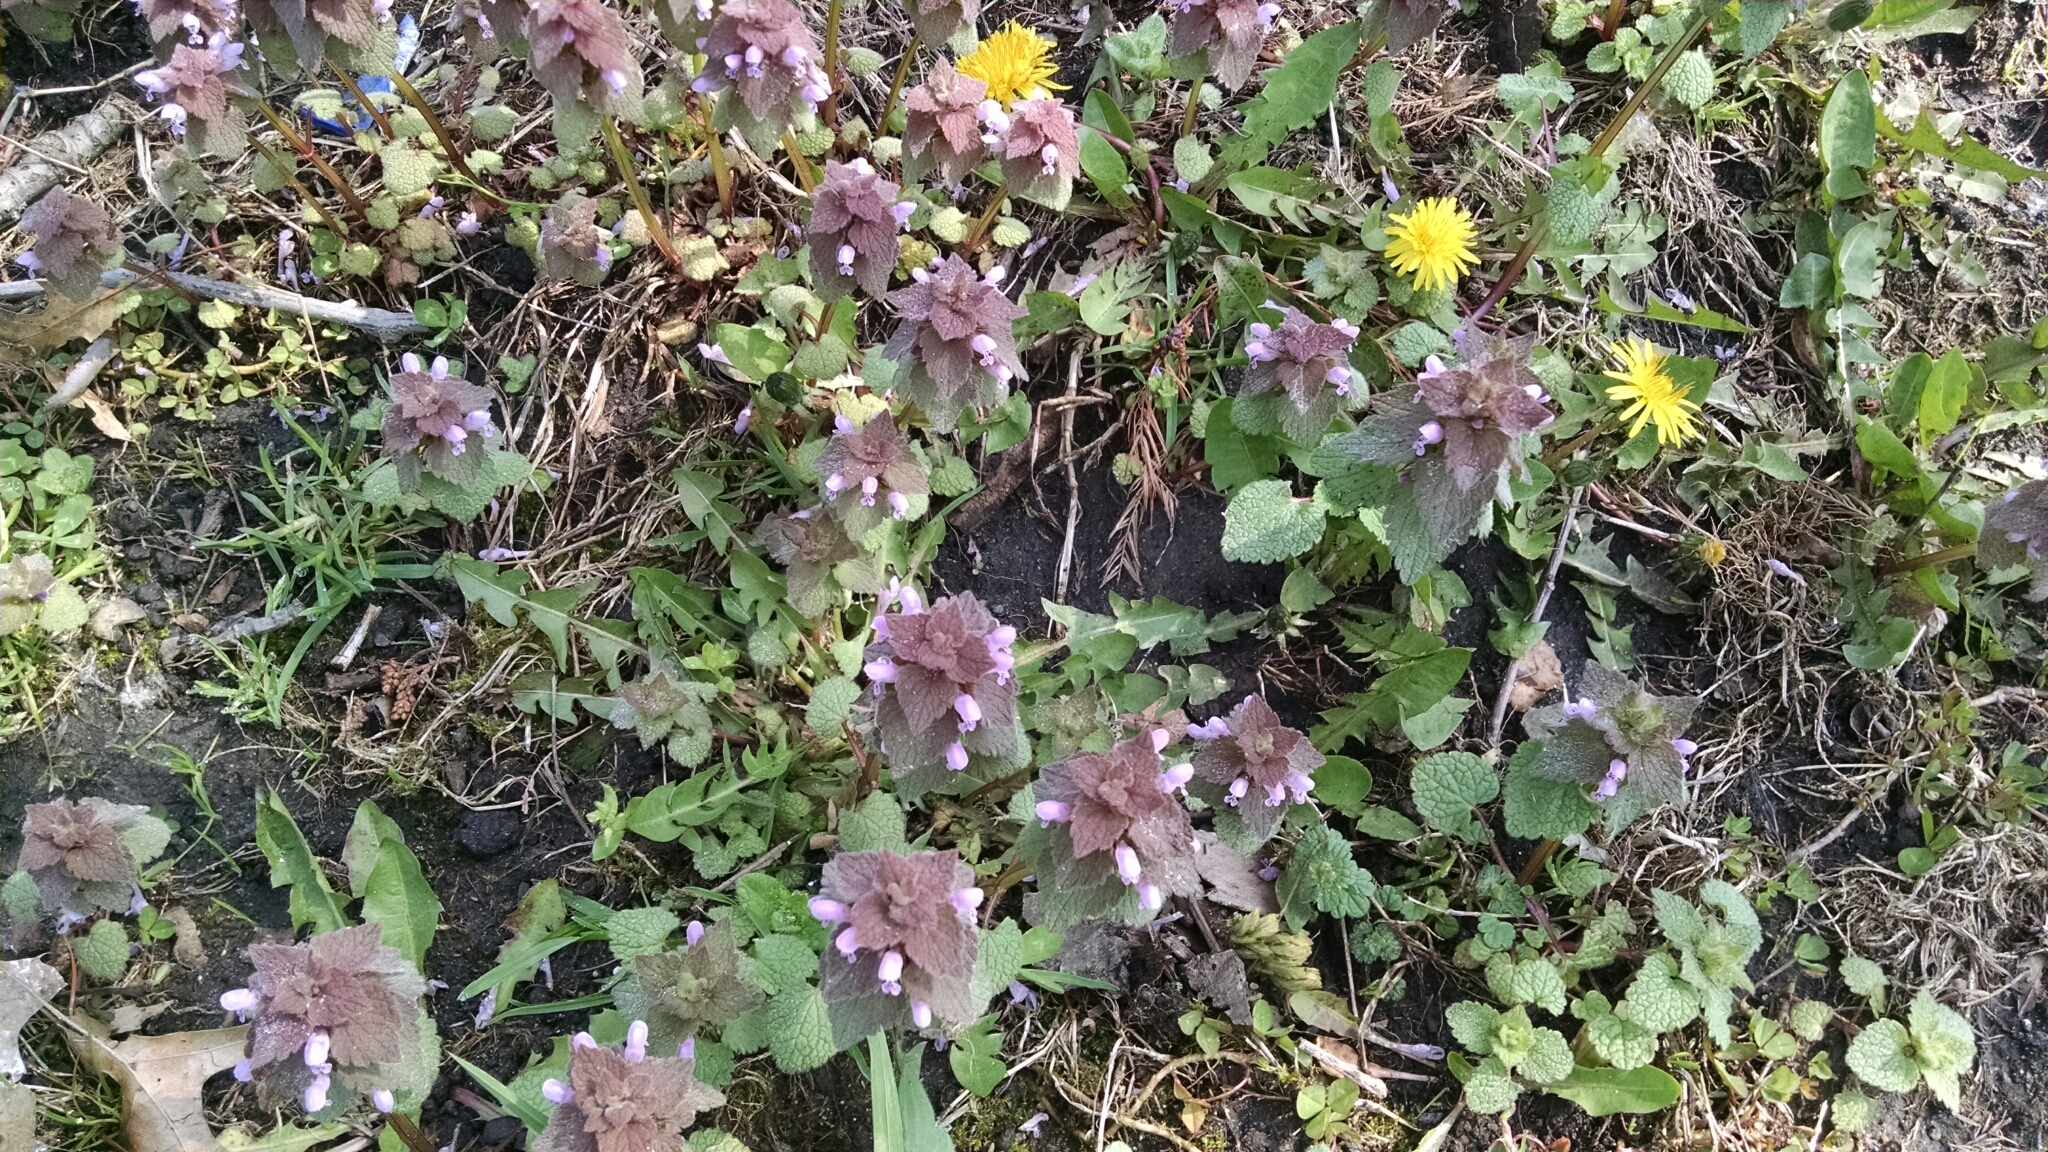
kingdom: Plantae
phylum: Tracheophyta
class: Magnoliopsida
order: Lamiales
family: Lamiaceae
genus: Lamium
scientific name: Lamium purpureum
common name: Red dead-nettle
